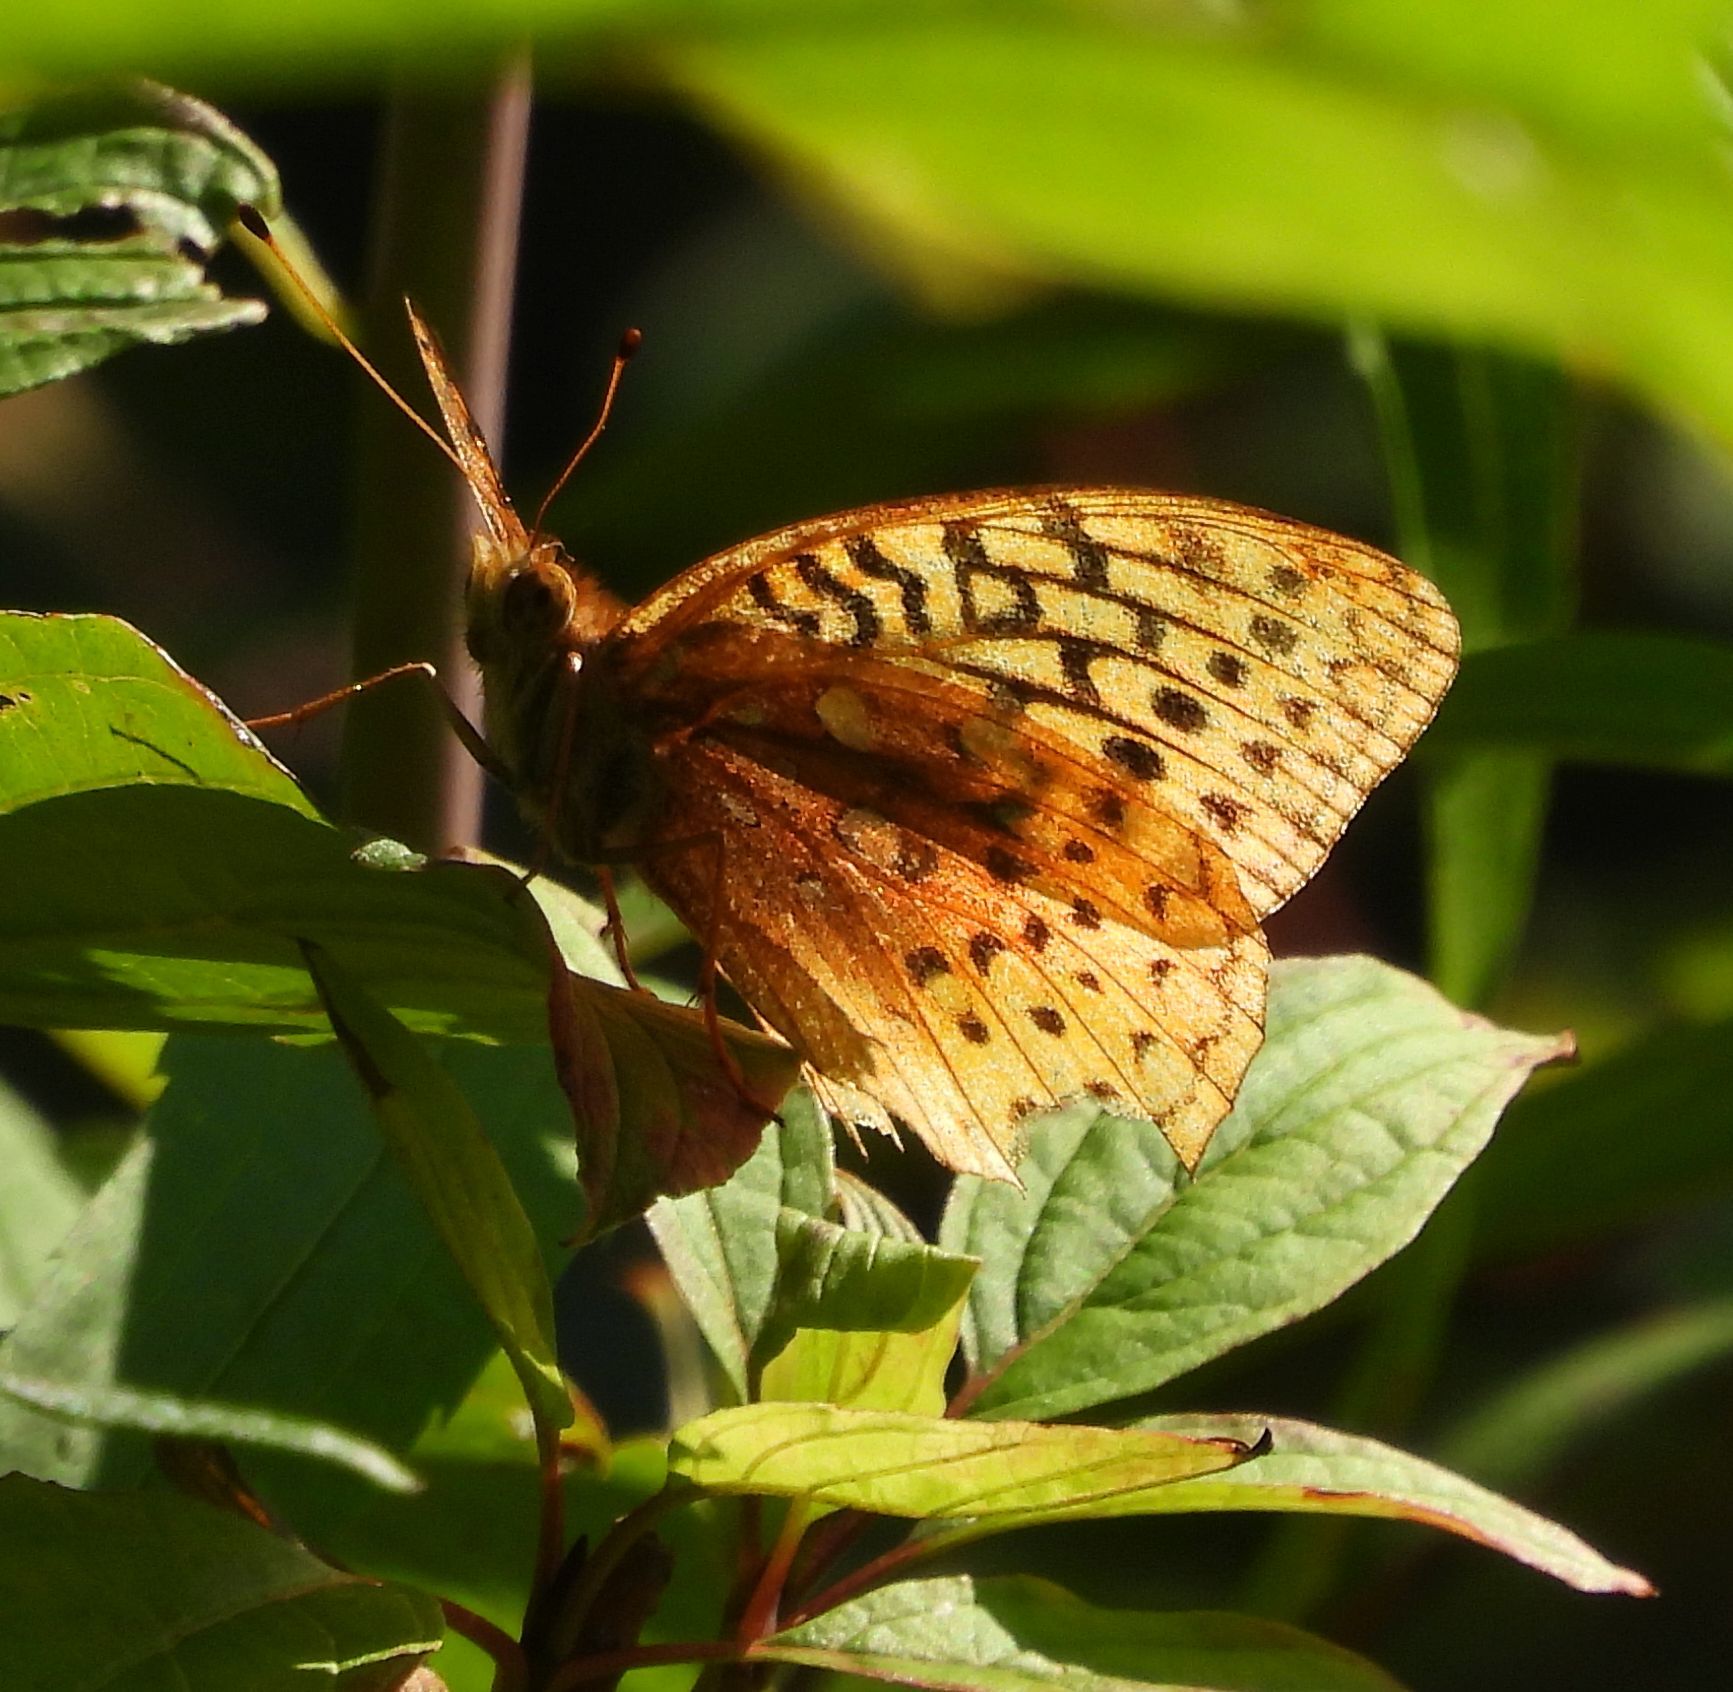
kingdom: Animalia
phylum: Arthropoda
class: Insecta
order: Lepidoptera
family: Nymphalidae
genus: Speyeria
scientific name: Speyeria cybele
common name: Great spangled fritillary
